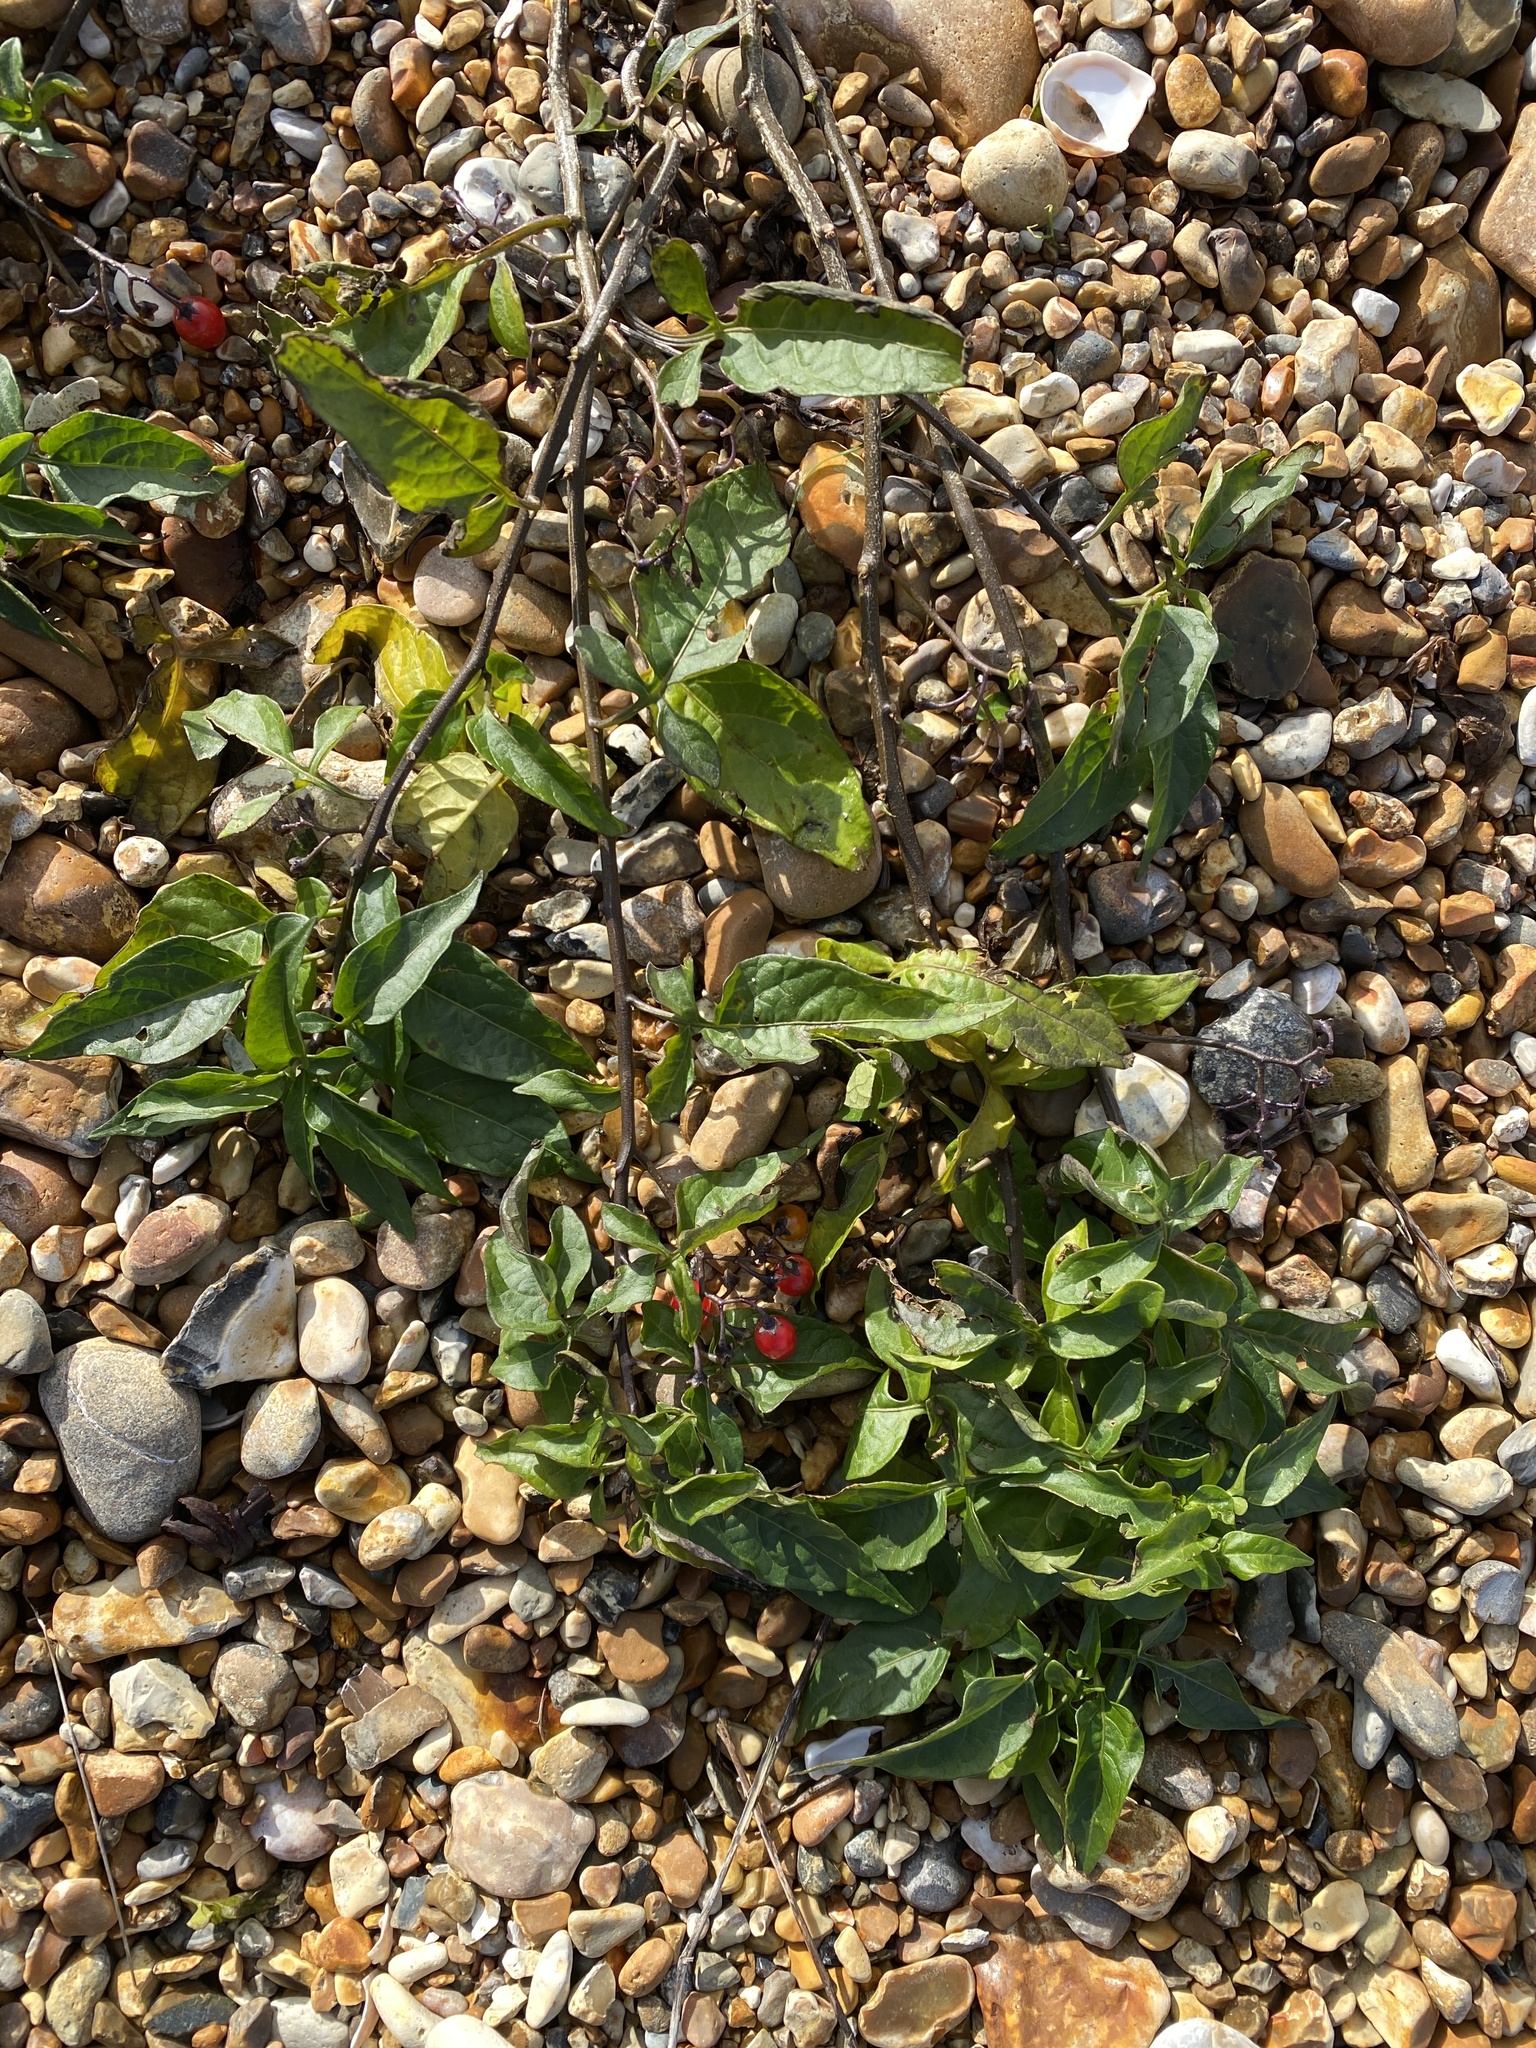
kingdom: Plantae
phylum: Tracheophyta
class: Magnoliopsida
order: Solanales
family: Solanaceae
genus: Solanum
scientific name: Solanum dulcamara
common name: Climbing nightshade
